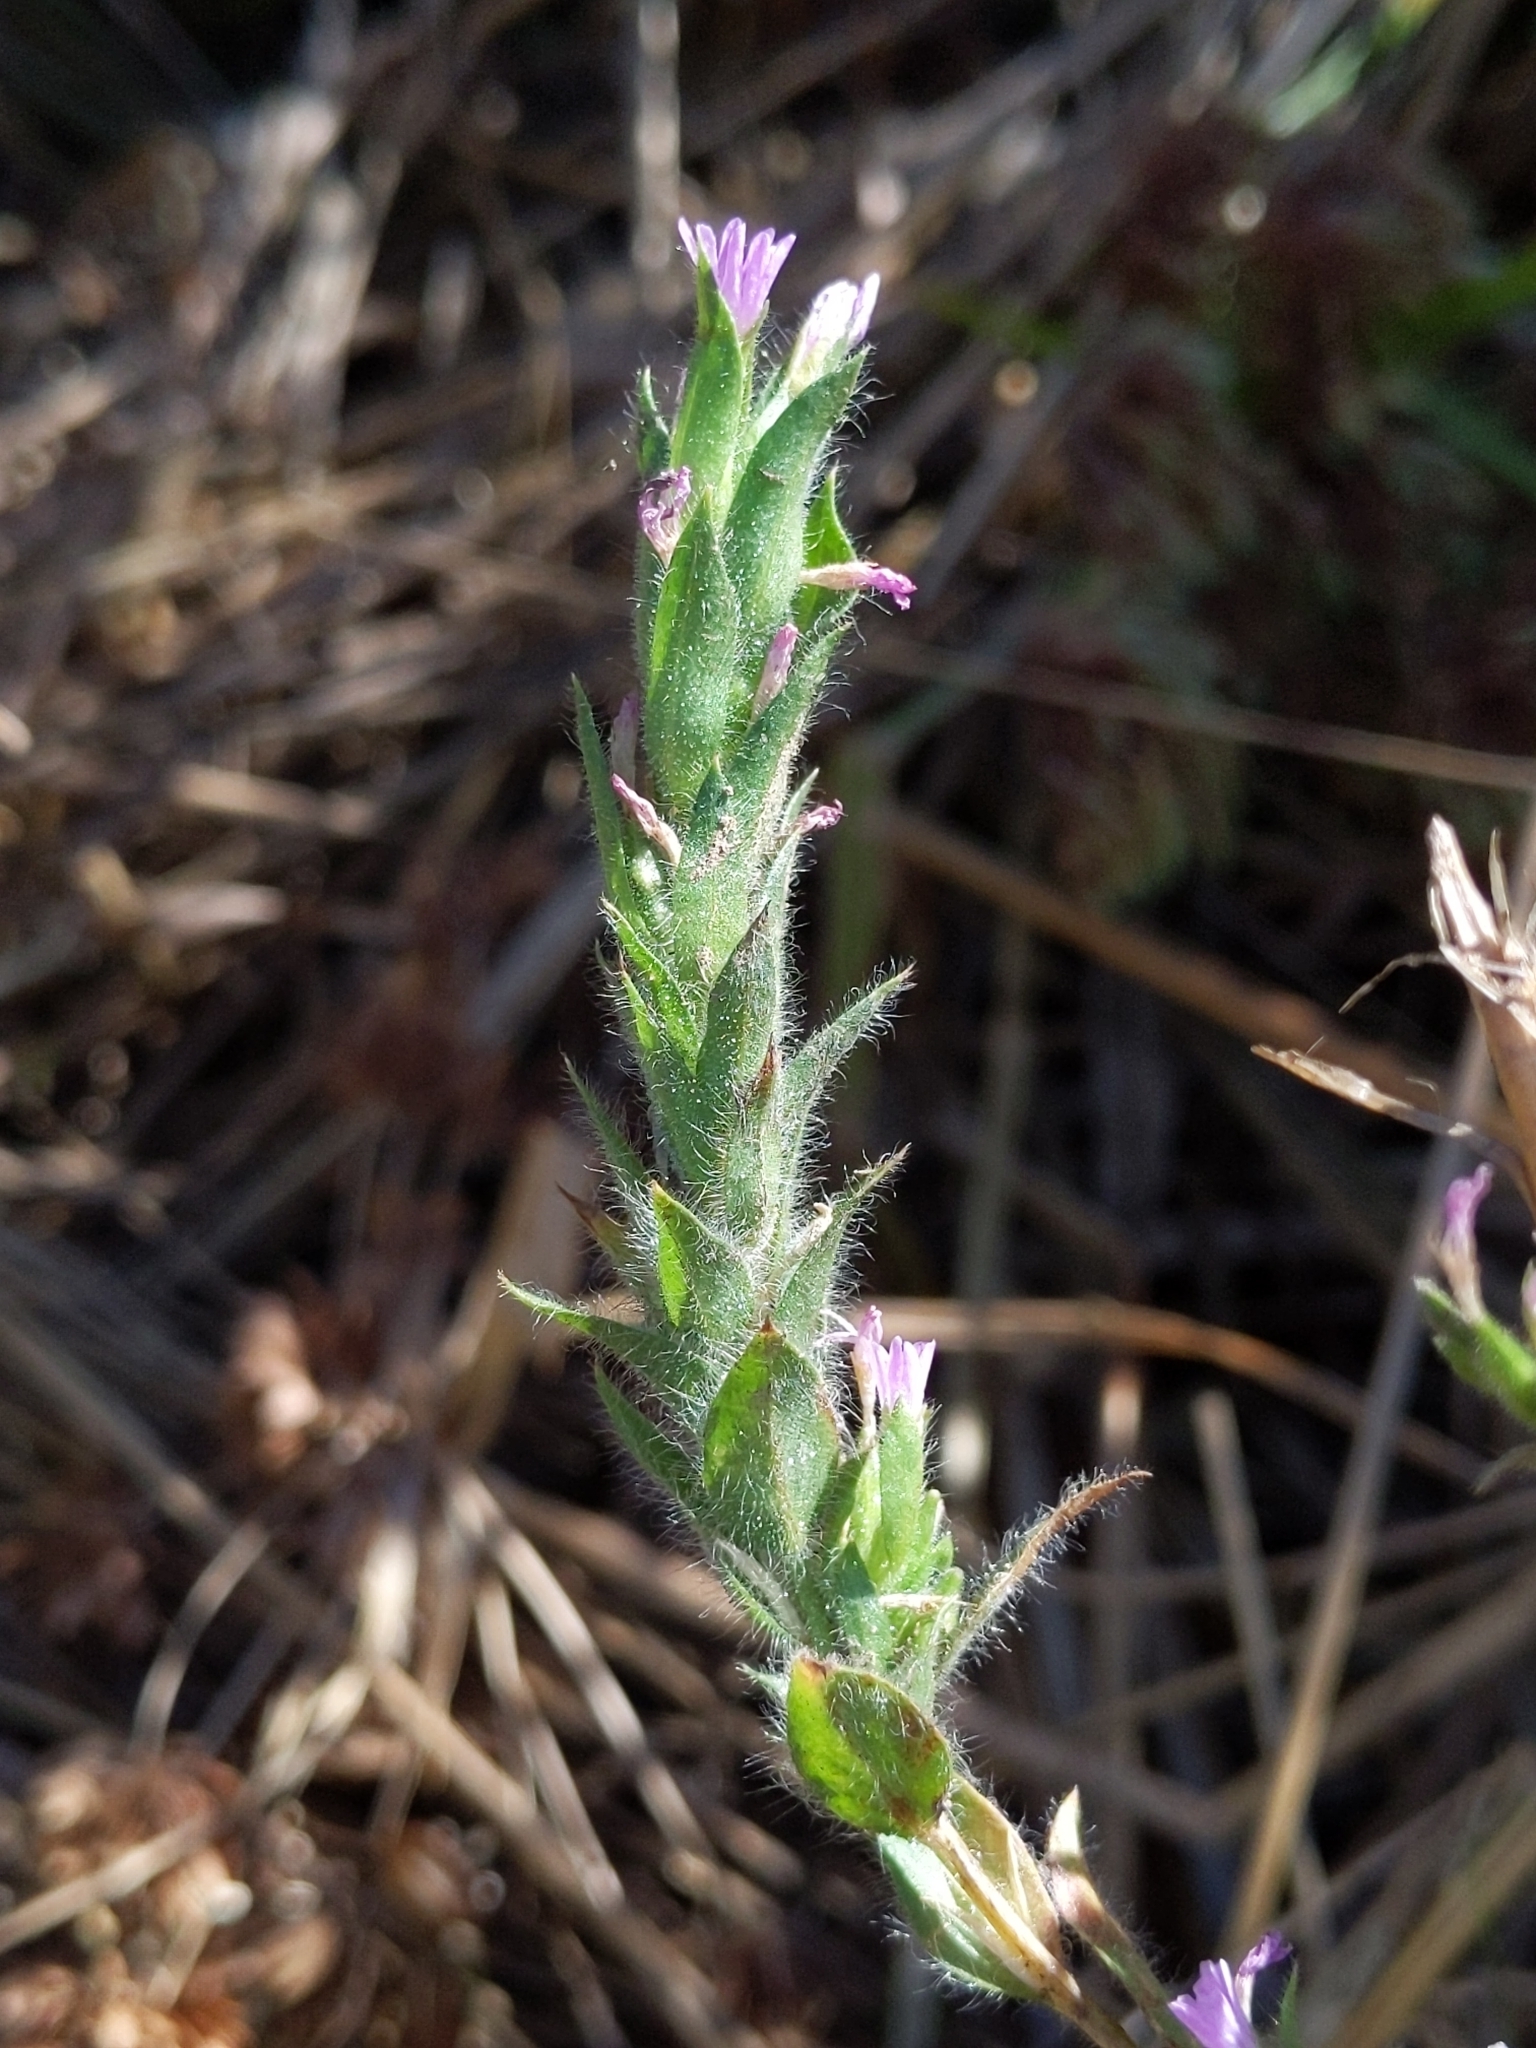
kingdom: Plantae
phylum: Tracheophyta
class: Magnoliopsida
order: Myrtales
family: Onagraceae
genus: Epilobium
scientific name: Epilobium densiflorum
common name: Dense spike-primrose
